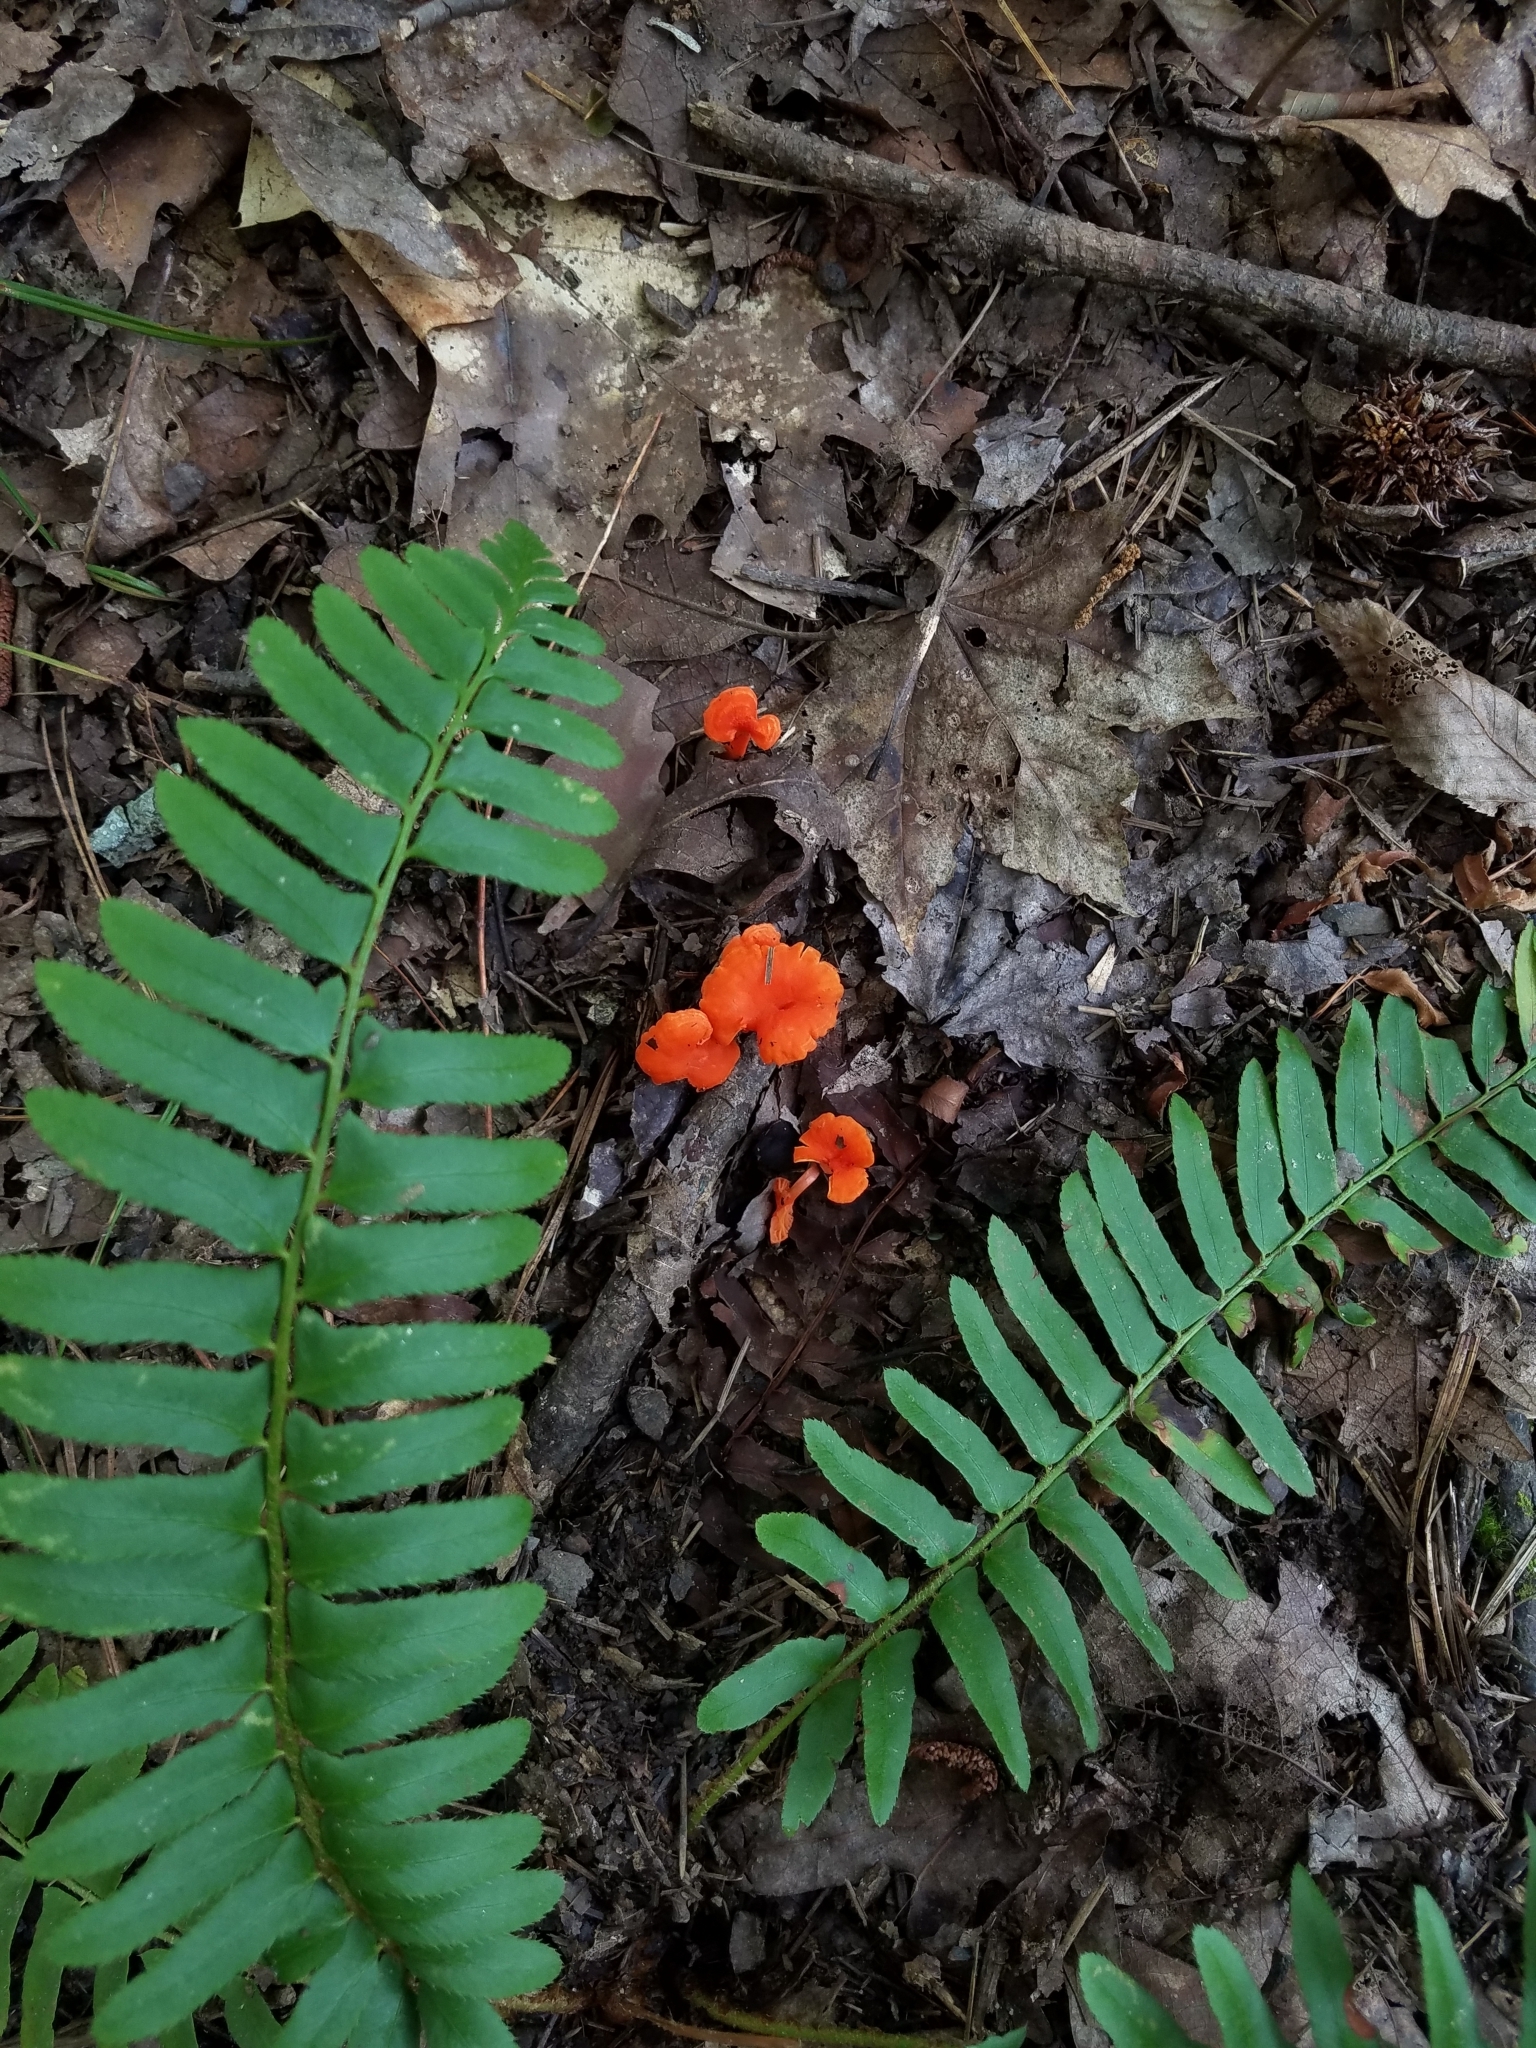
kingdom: Fungi
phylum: Basidiomycota
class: Agaricomycetes
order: Cantharellales
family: Hydnaceae
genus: Cantharellus
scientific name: Cantharellus cinnabarinus
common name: Cinnabar chanterelle
